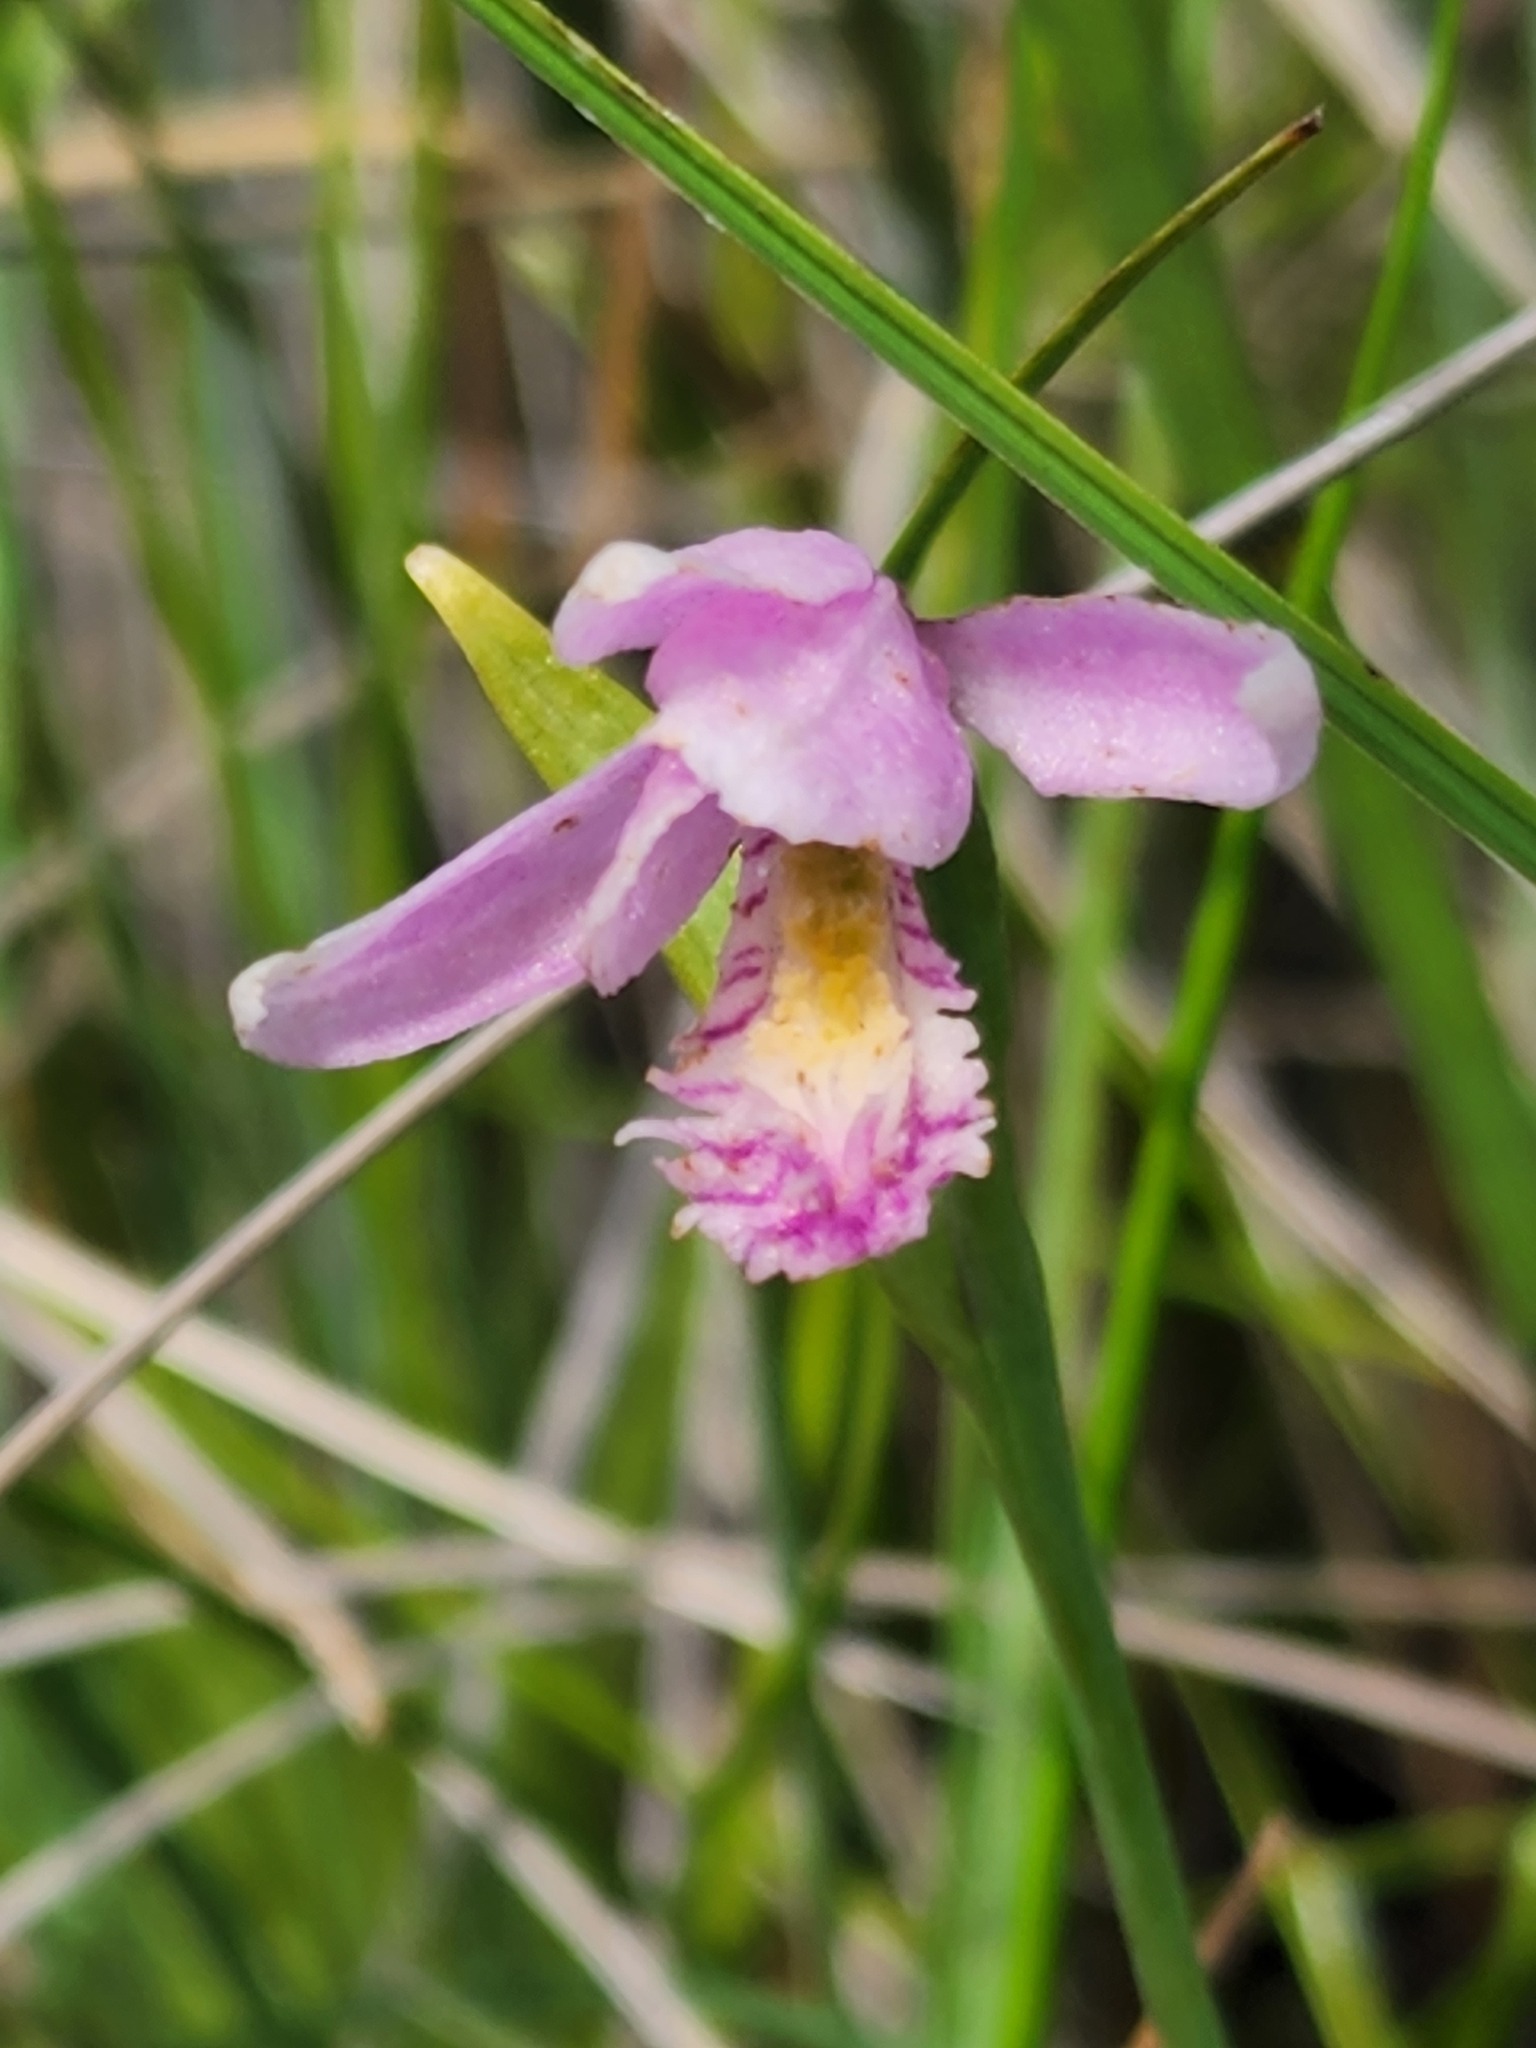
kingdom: Plantae
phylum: Tracheophyta
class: Liliopsida
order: Asparagales
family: Orchidaceae
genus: Pogonia
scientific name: Pogonia ophioglossoides
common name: Rose pogonia
